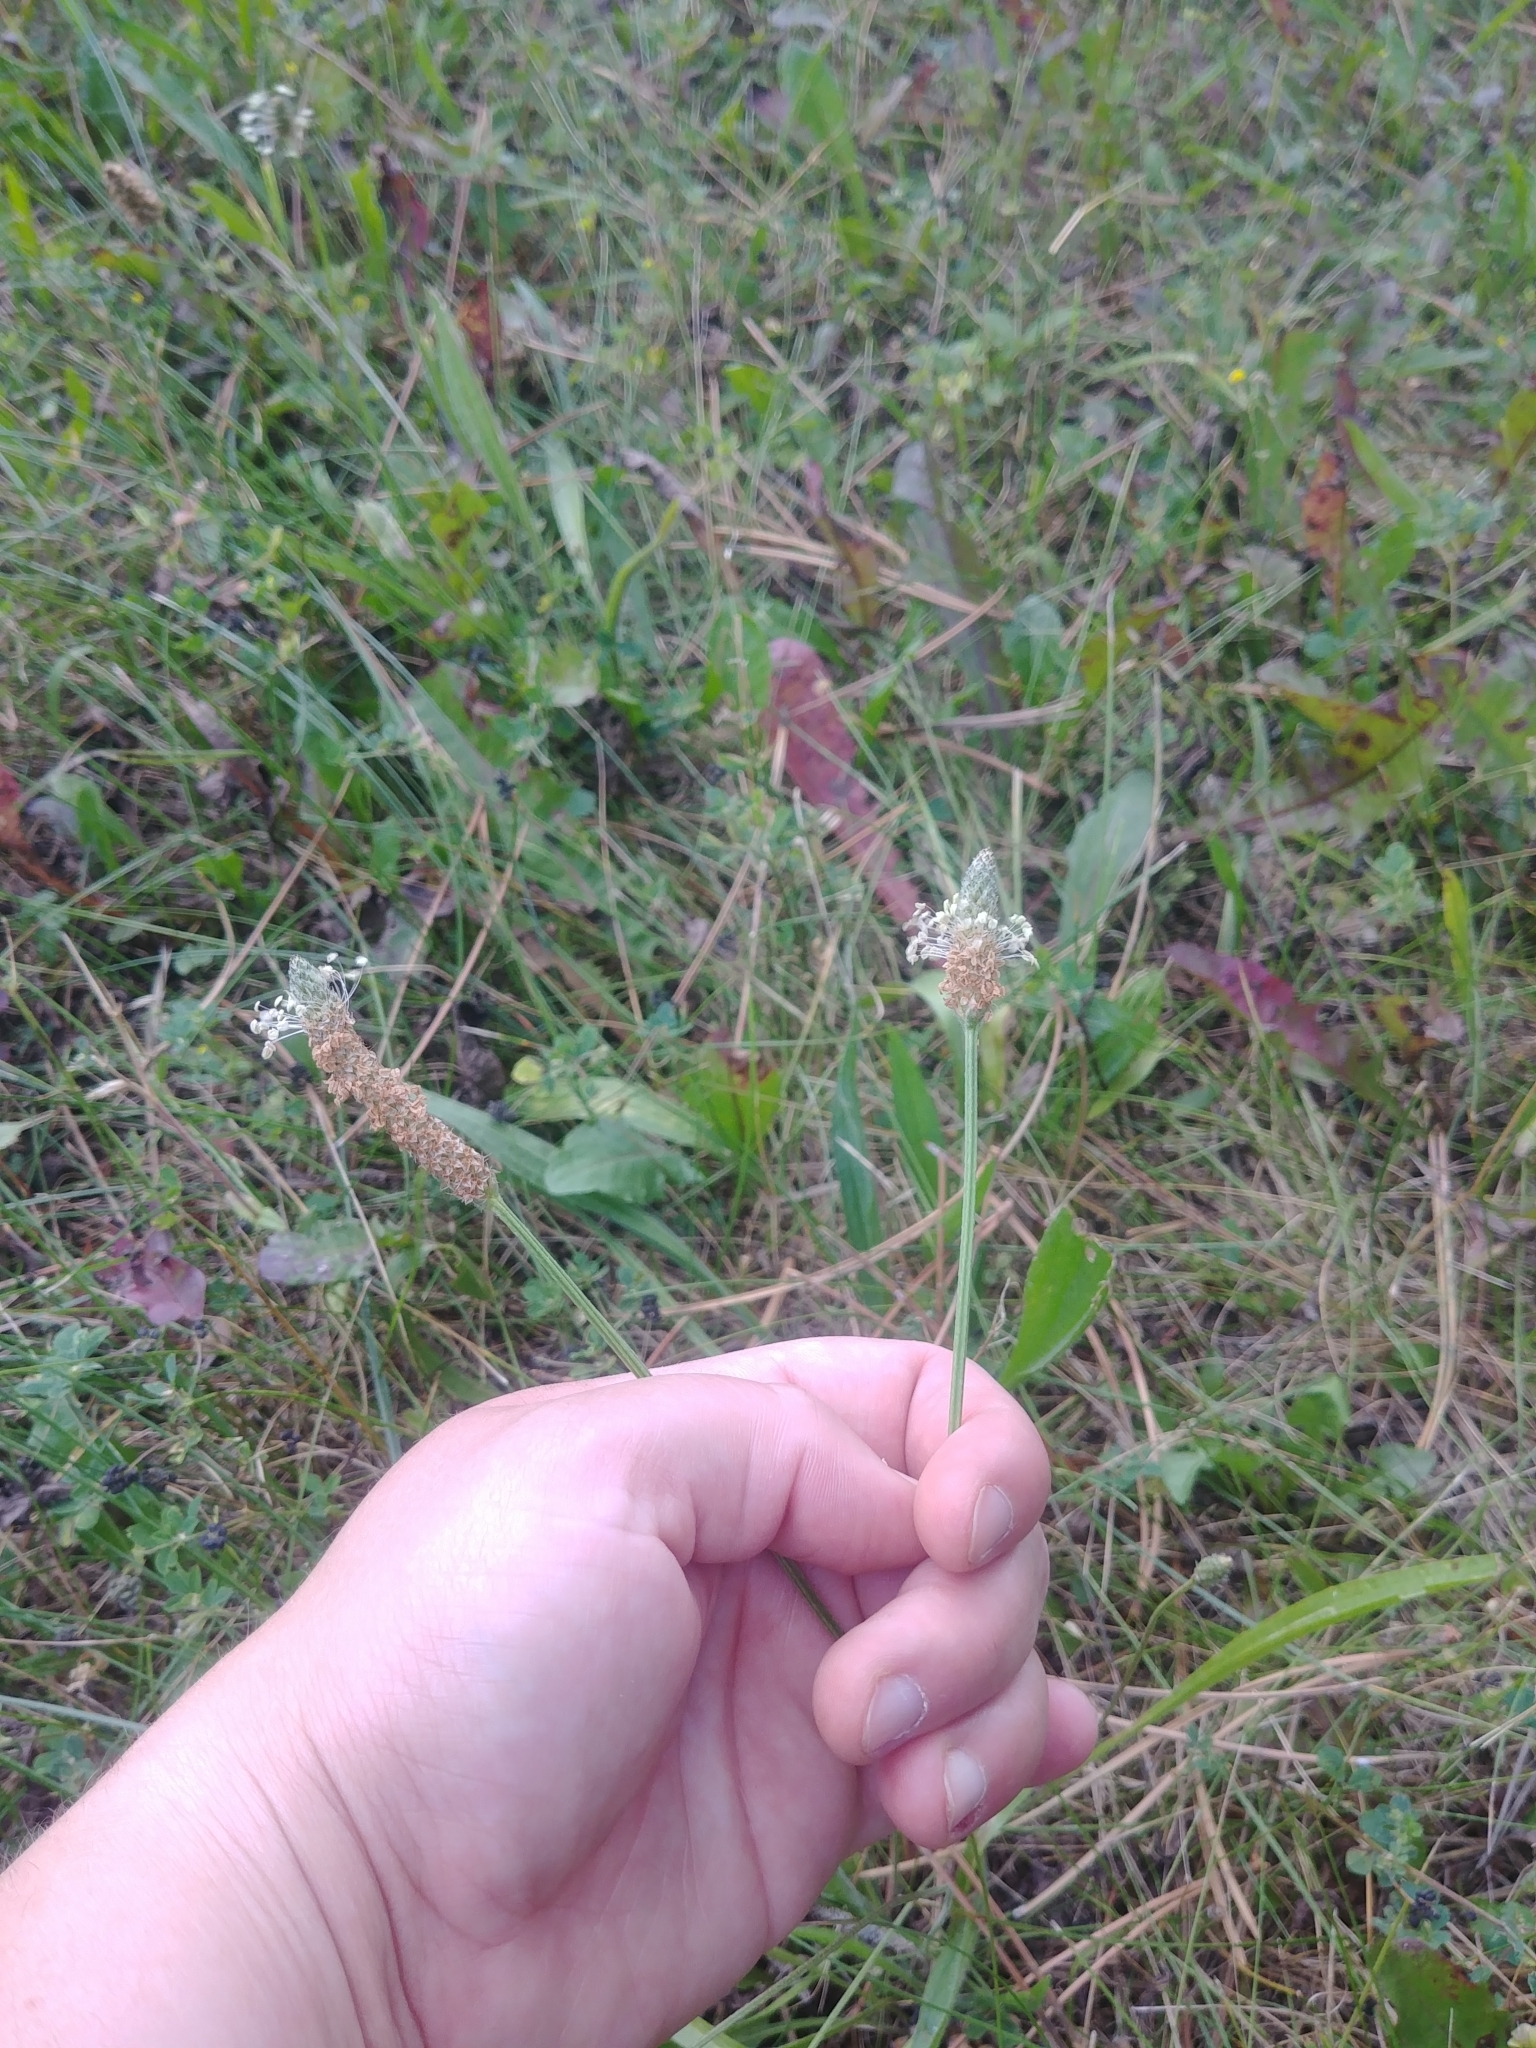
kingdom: Plantae
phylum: Tracheophyta
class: Magnoliopsida
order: Lamiales
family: Plantaginaceae
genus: Plantago
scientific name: Plantago lanceolata
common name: Ribwort plantain
